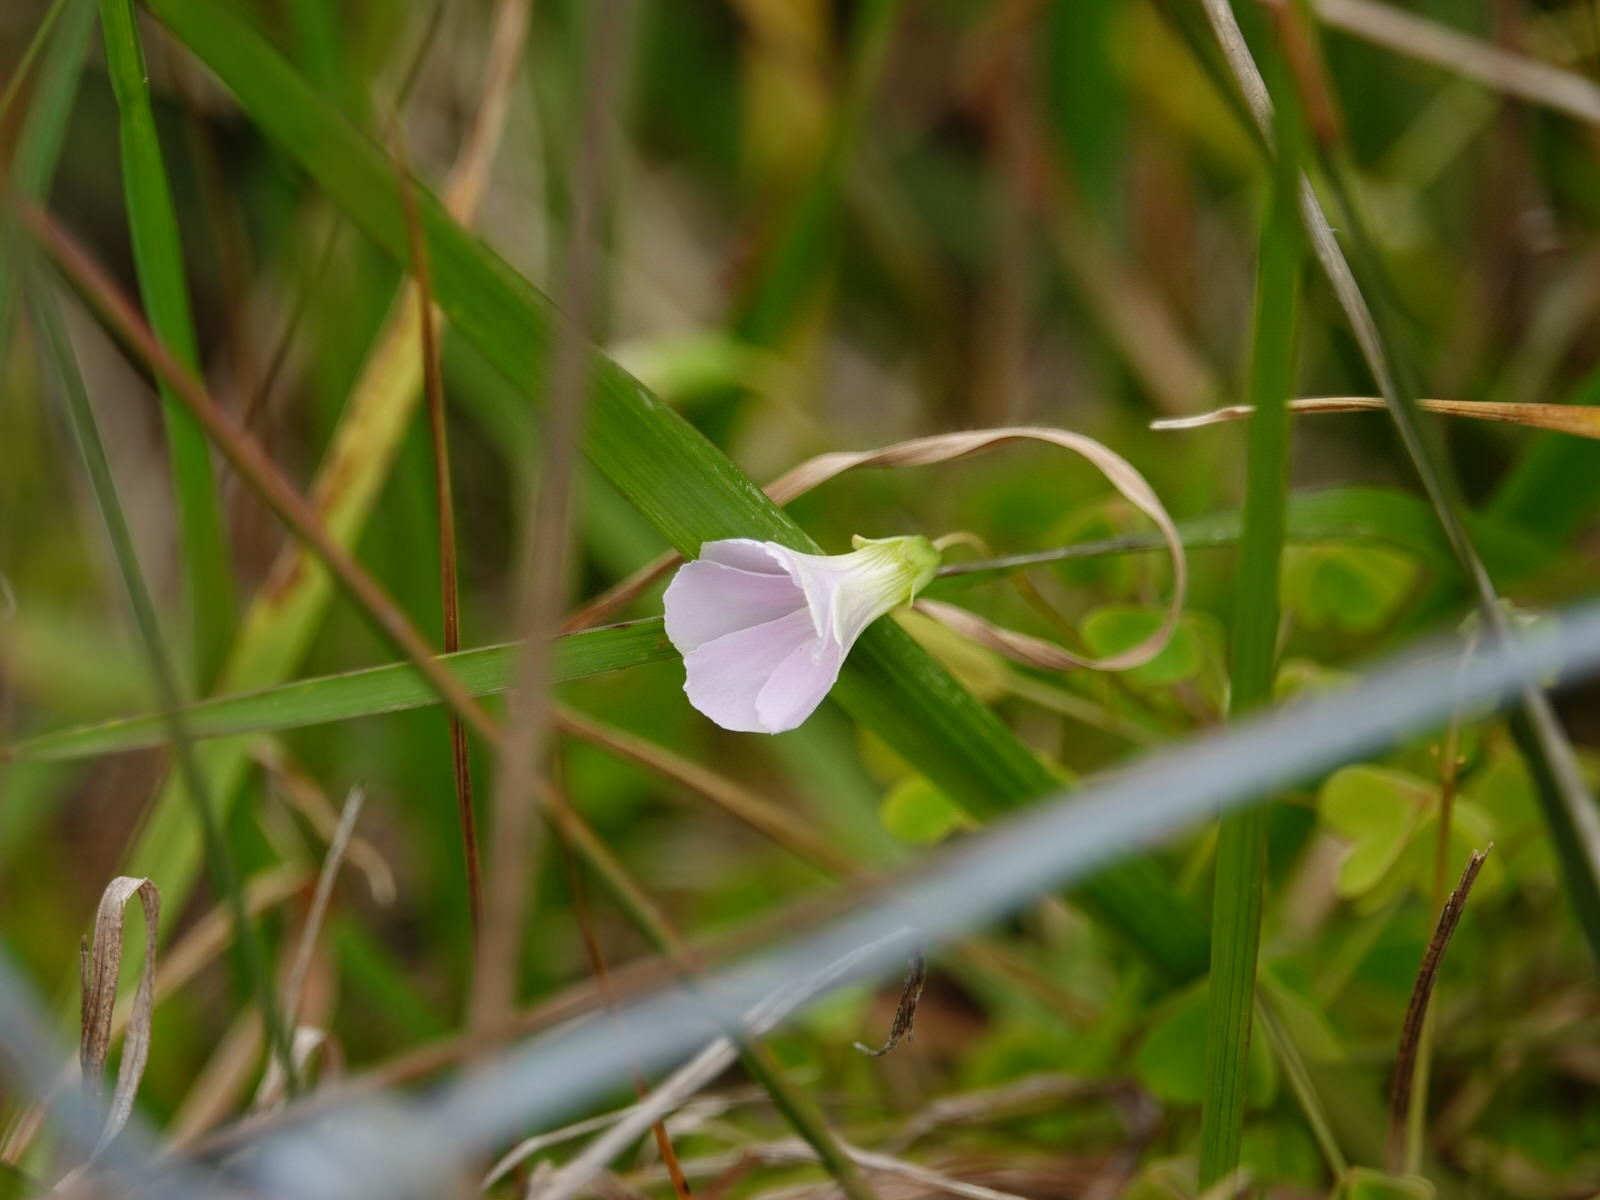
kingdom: Plantae
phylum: Tracheophyta
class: Magnoliopsida
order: Oxalidales
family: Oxalidaceae
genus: Oxalis
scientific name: Oxalis incarnata
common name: Pale pink-sorrel
